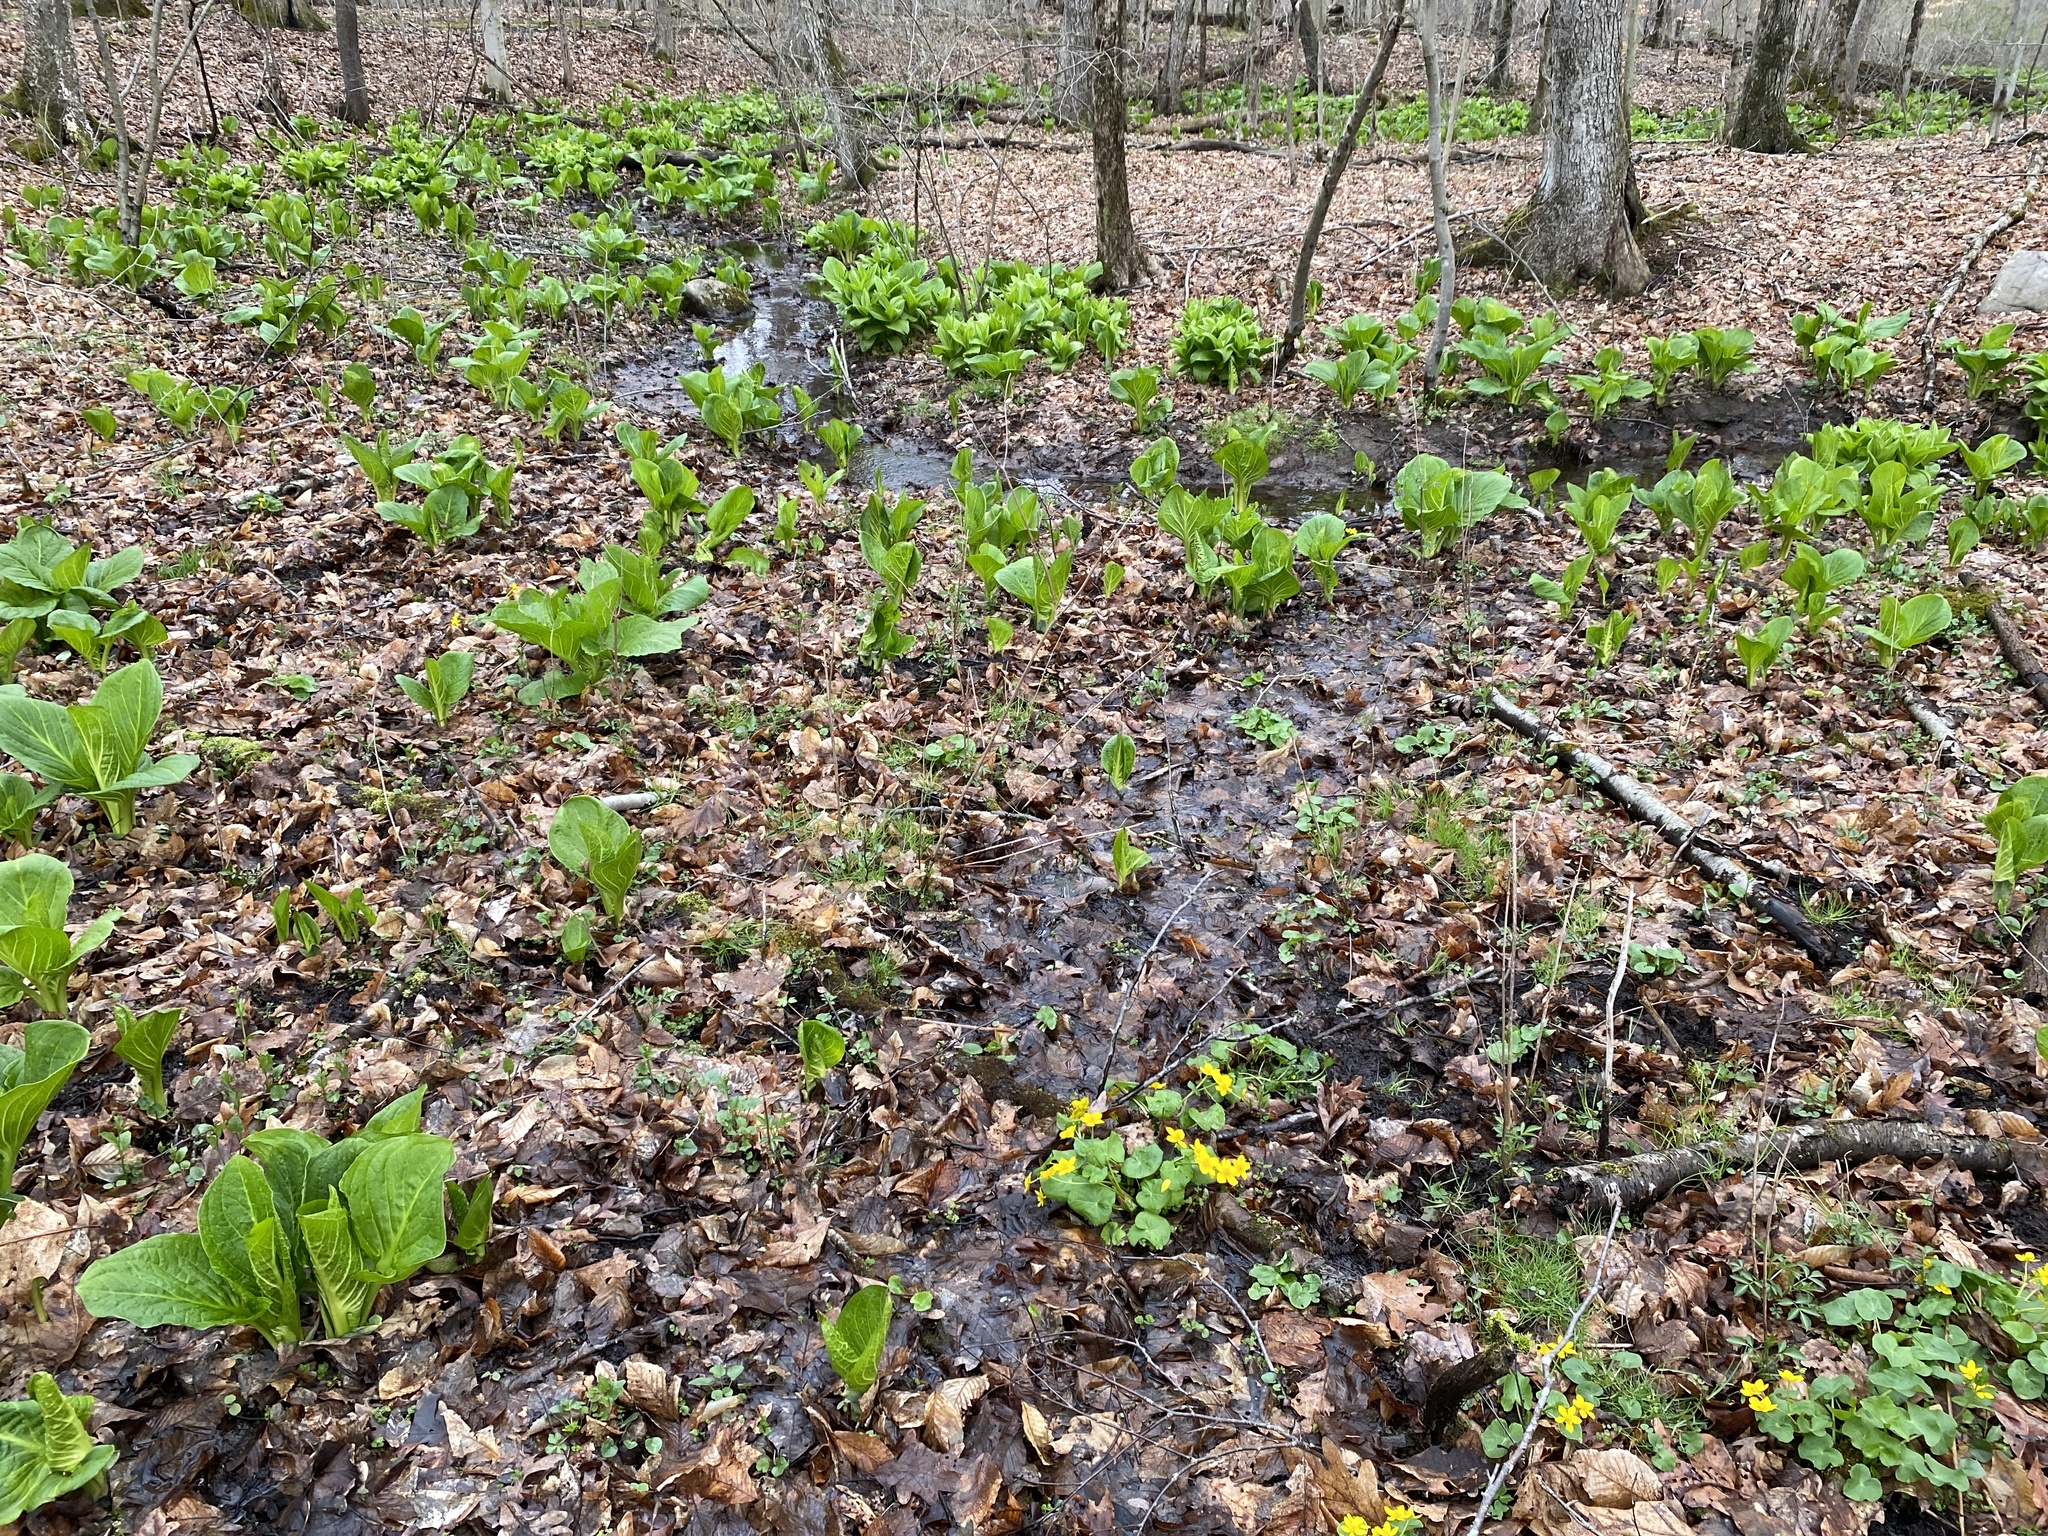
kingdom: Plantae
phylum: Tracheophyta
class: Magnoliopsida
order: Ranunculales
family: Ranunculaceae
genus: Caltha
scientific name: Caltha palustris
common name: Marsh marigold
